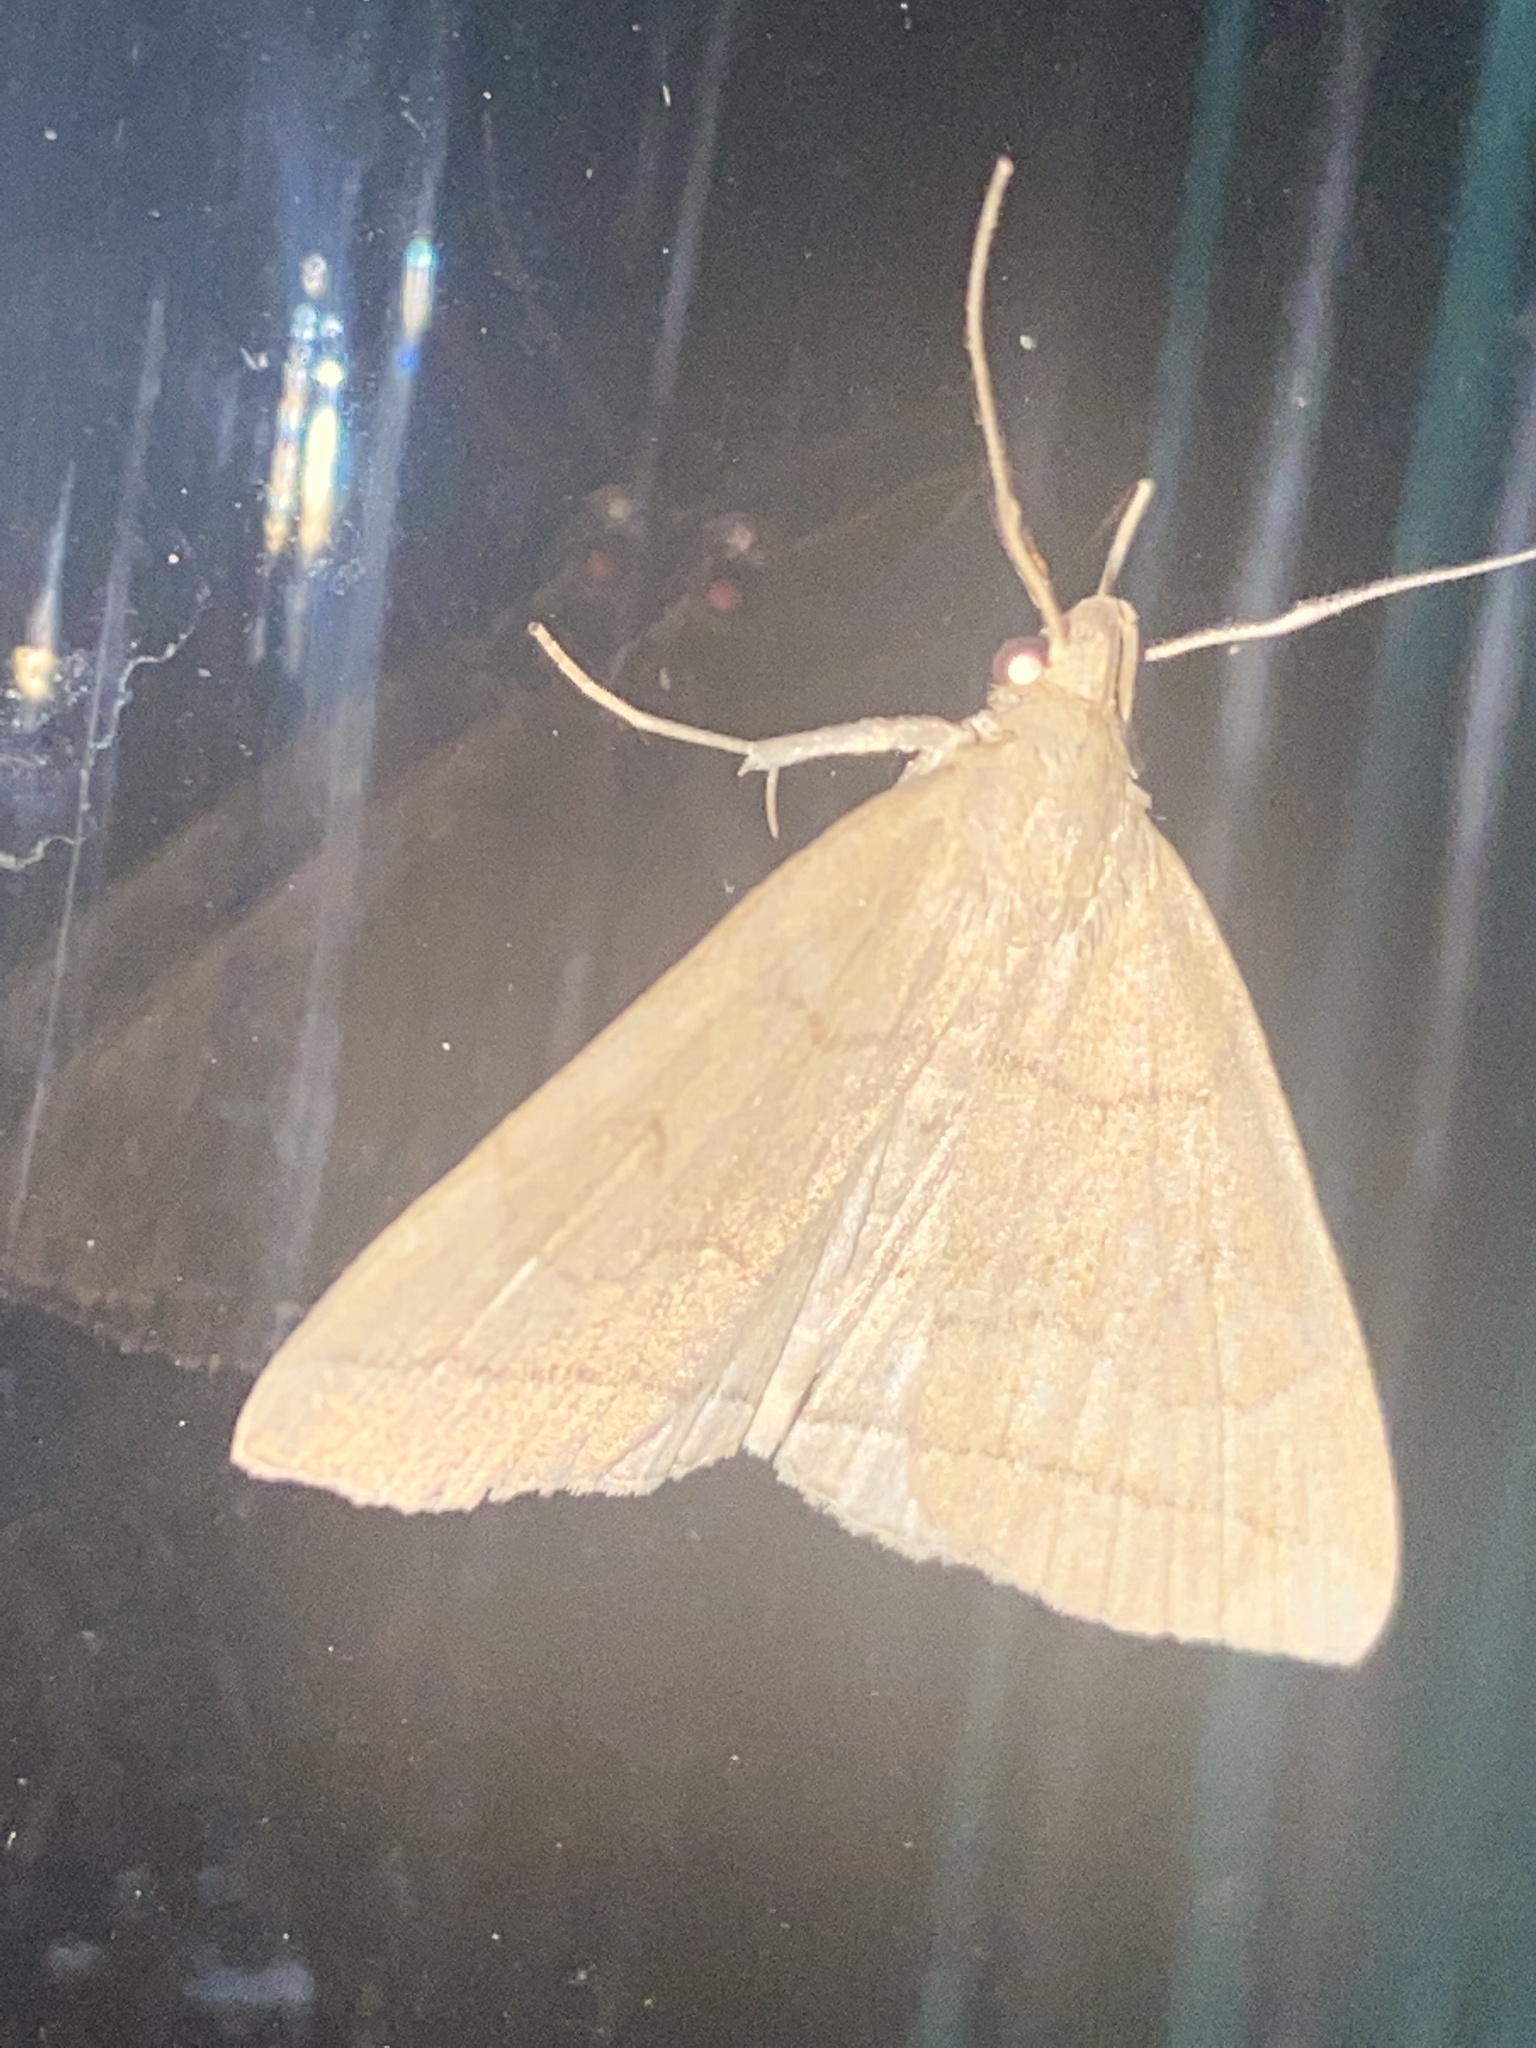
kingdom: Animalia
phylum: Arthropoda
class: Insecta
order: Lepidoptera
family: Erebidae
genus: Herminia
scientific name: Herminia tarsipennalis
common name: Fan-foot
